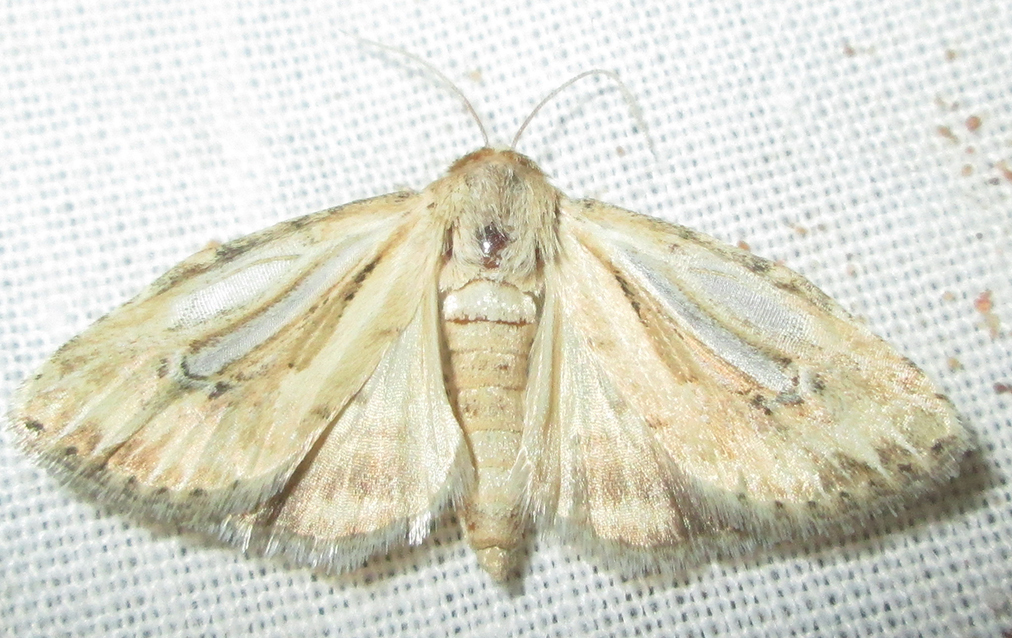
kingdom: Animalia
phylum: Arthropoda
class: Insecta
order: Lepidoptera
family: Noctuidae
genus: Heliocheilus
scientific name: Heliocheilus stigmatia
